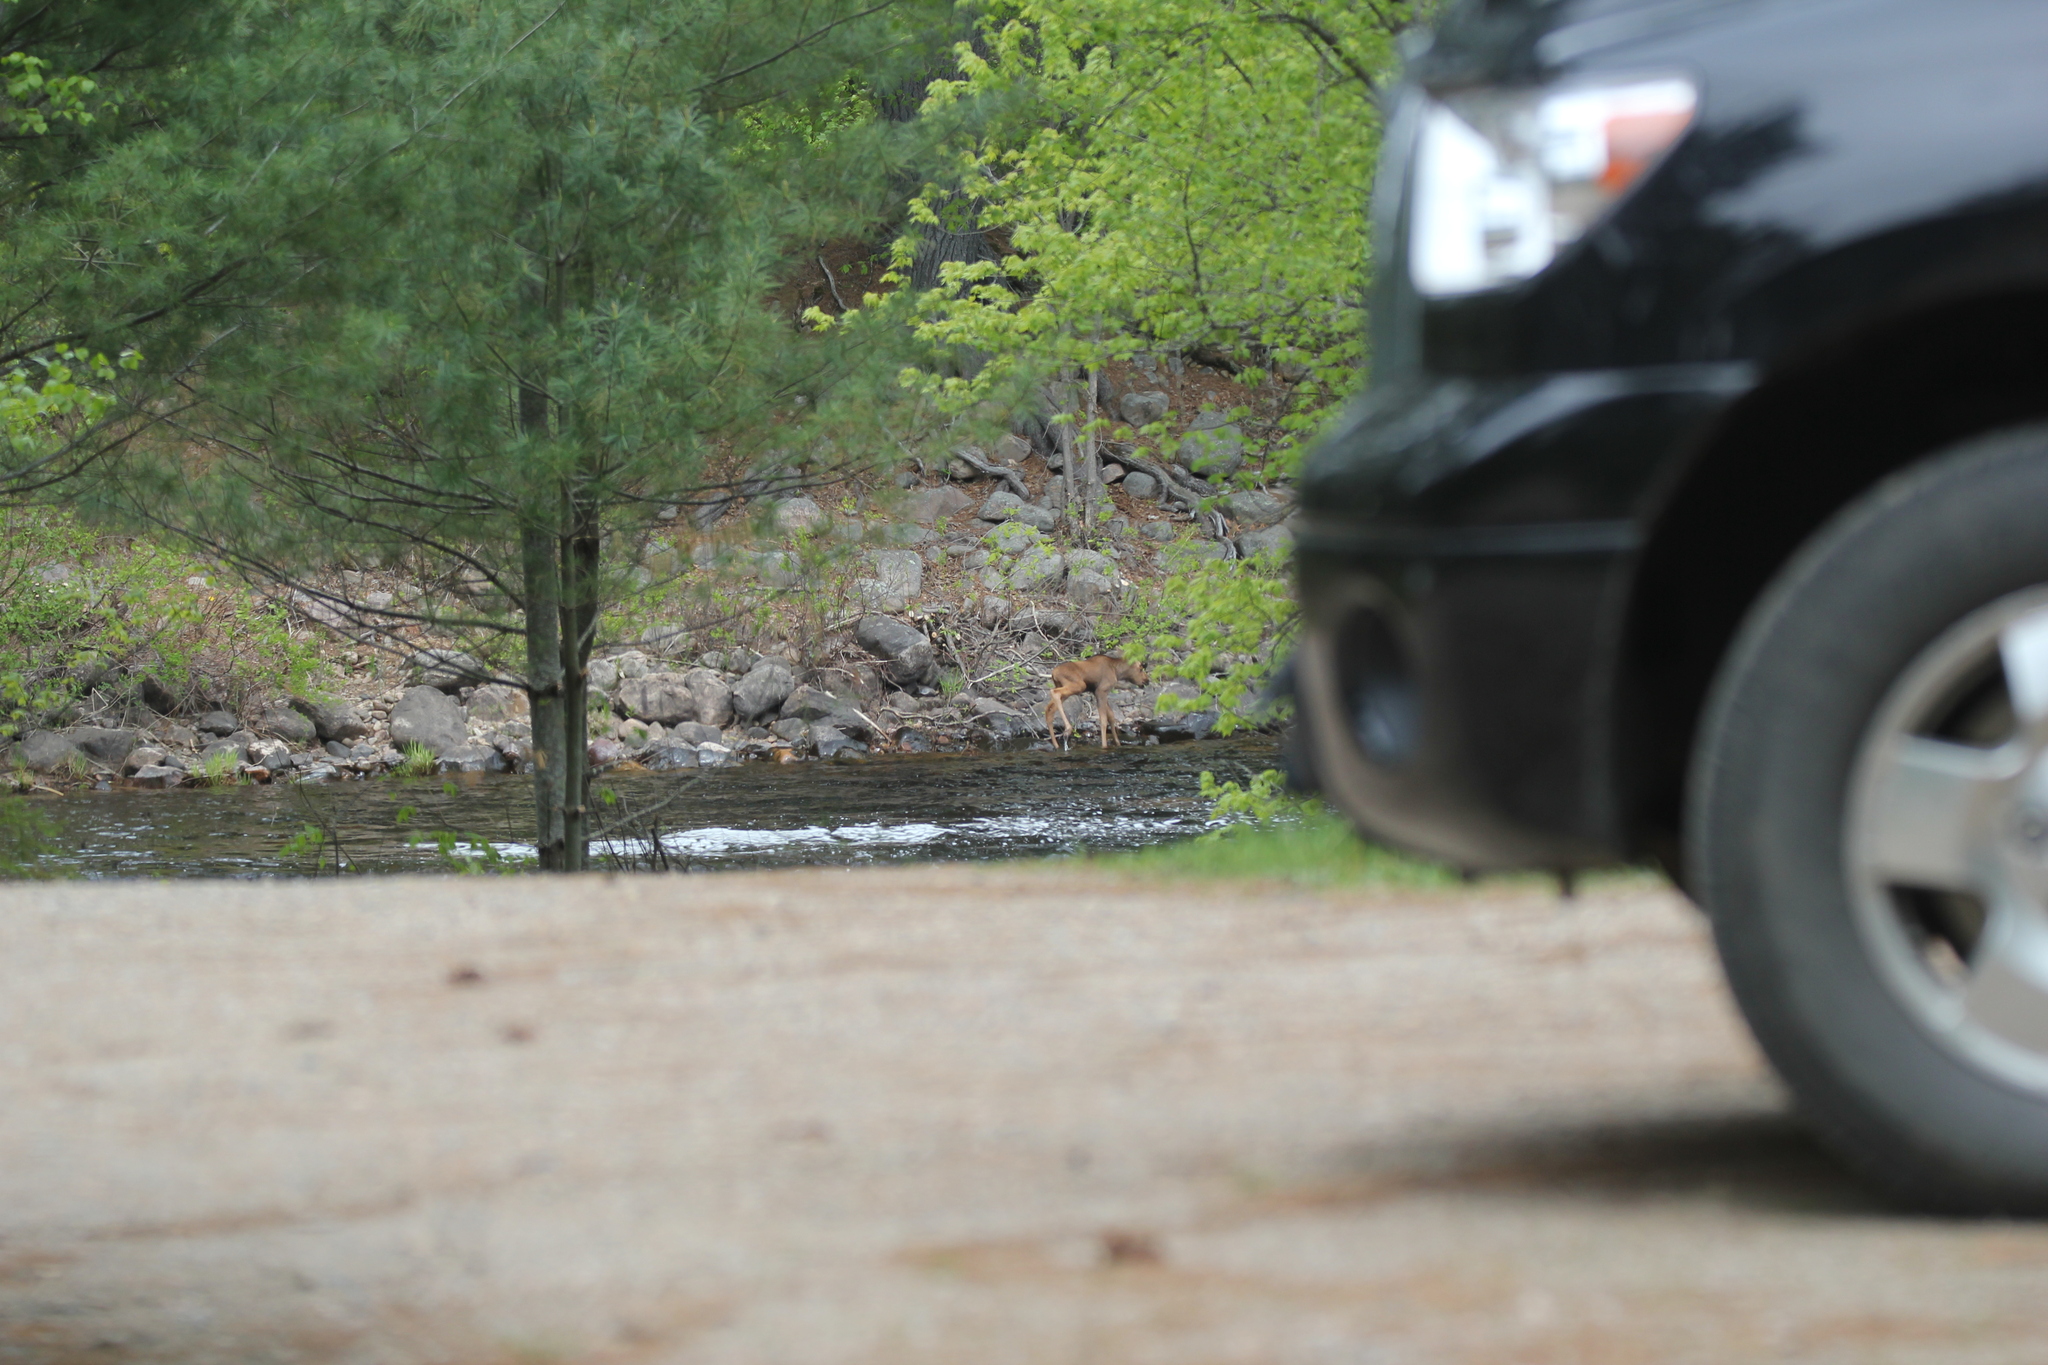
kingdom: Animalia
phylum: Chordata
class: Mammalia
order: Artiodactyla
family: Cervidae
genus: Alces
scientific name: Alces alces
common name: Moose
